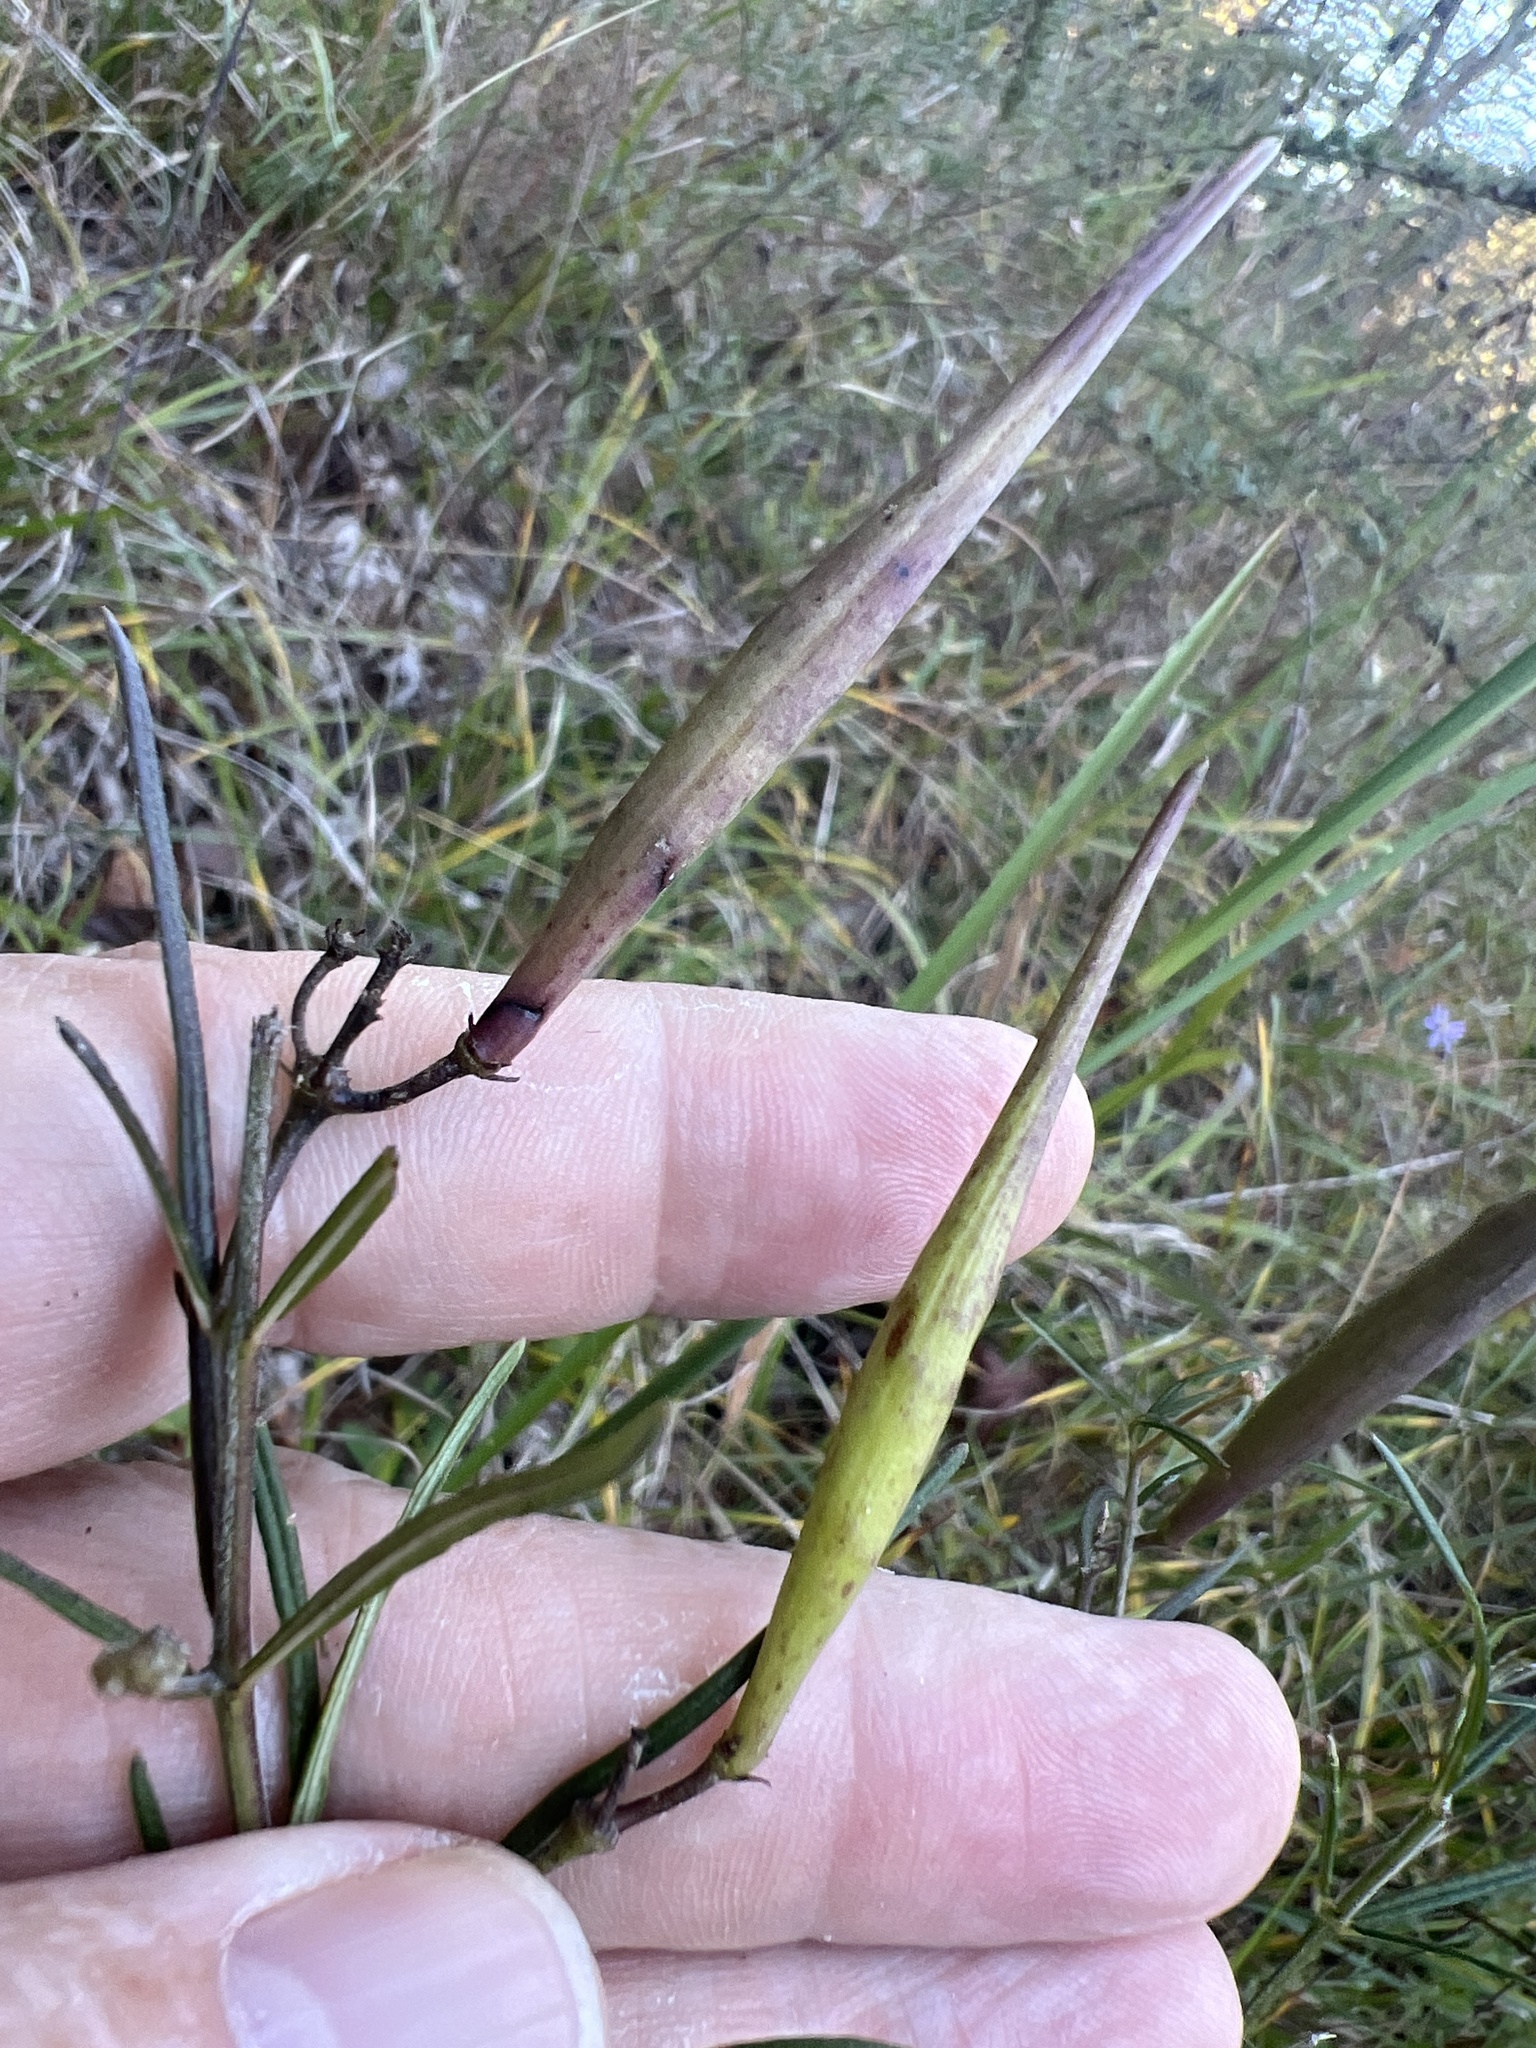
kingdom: Plantae
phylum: Tracheophyta
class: Magnoliopsida
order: Gentianales
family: Apocynaceae
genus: Asclepias
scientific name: Asclepias verticillata
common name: Eastern whorled milkweed
